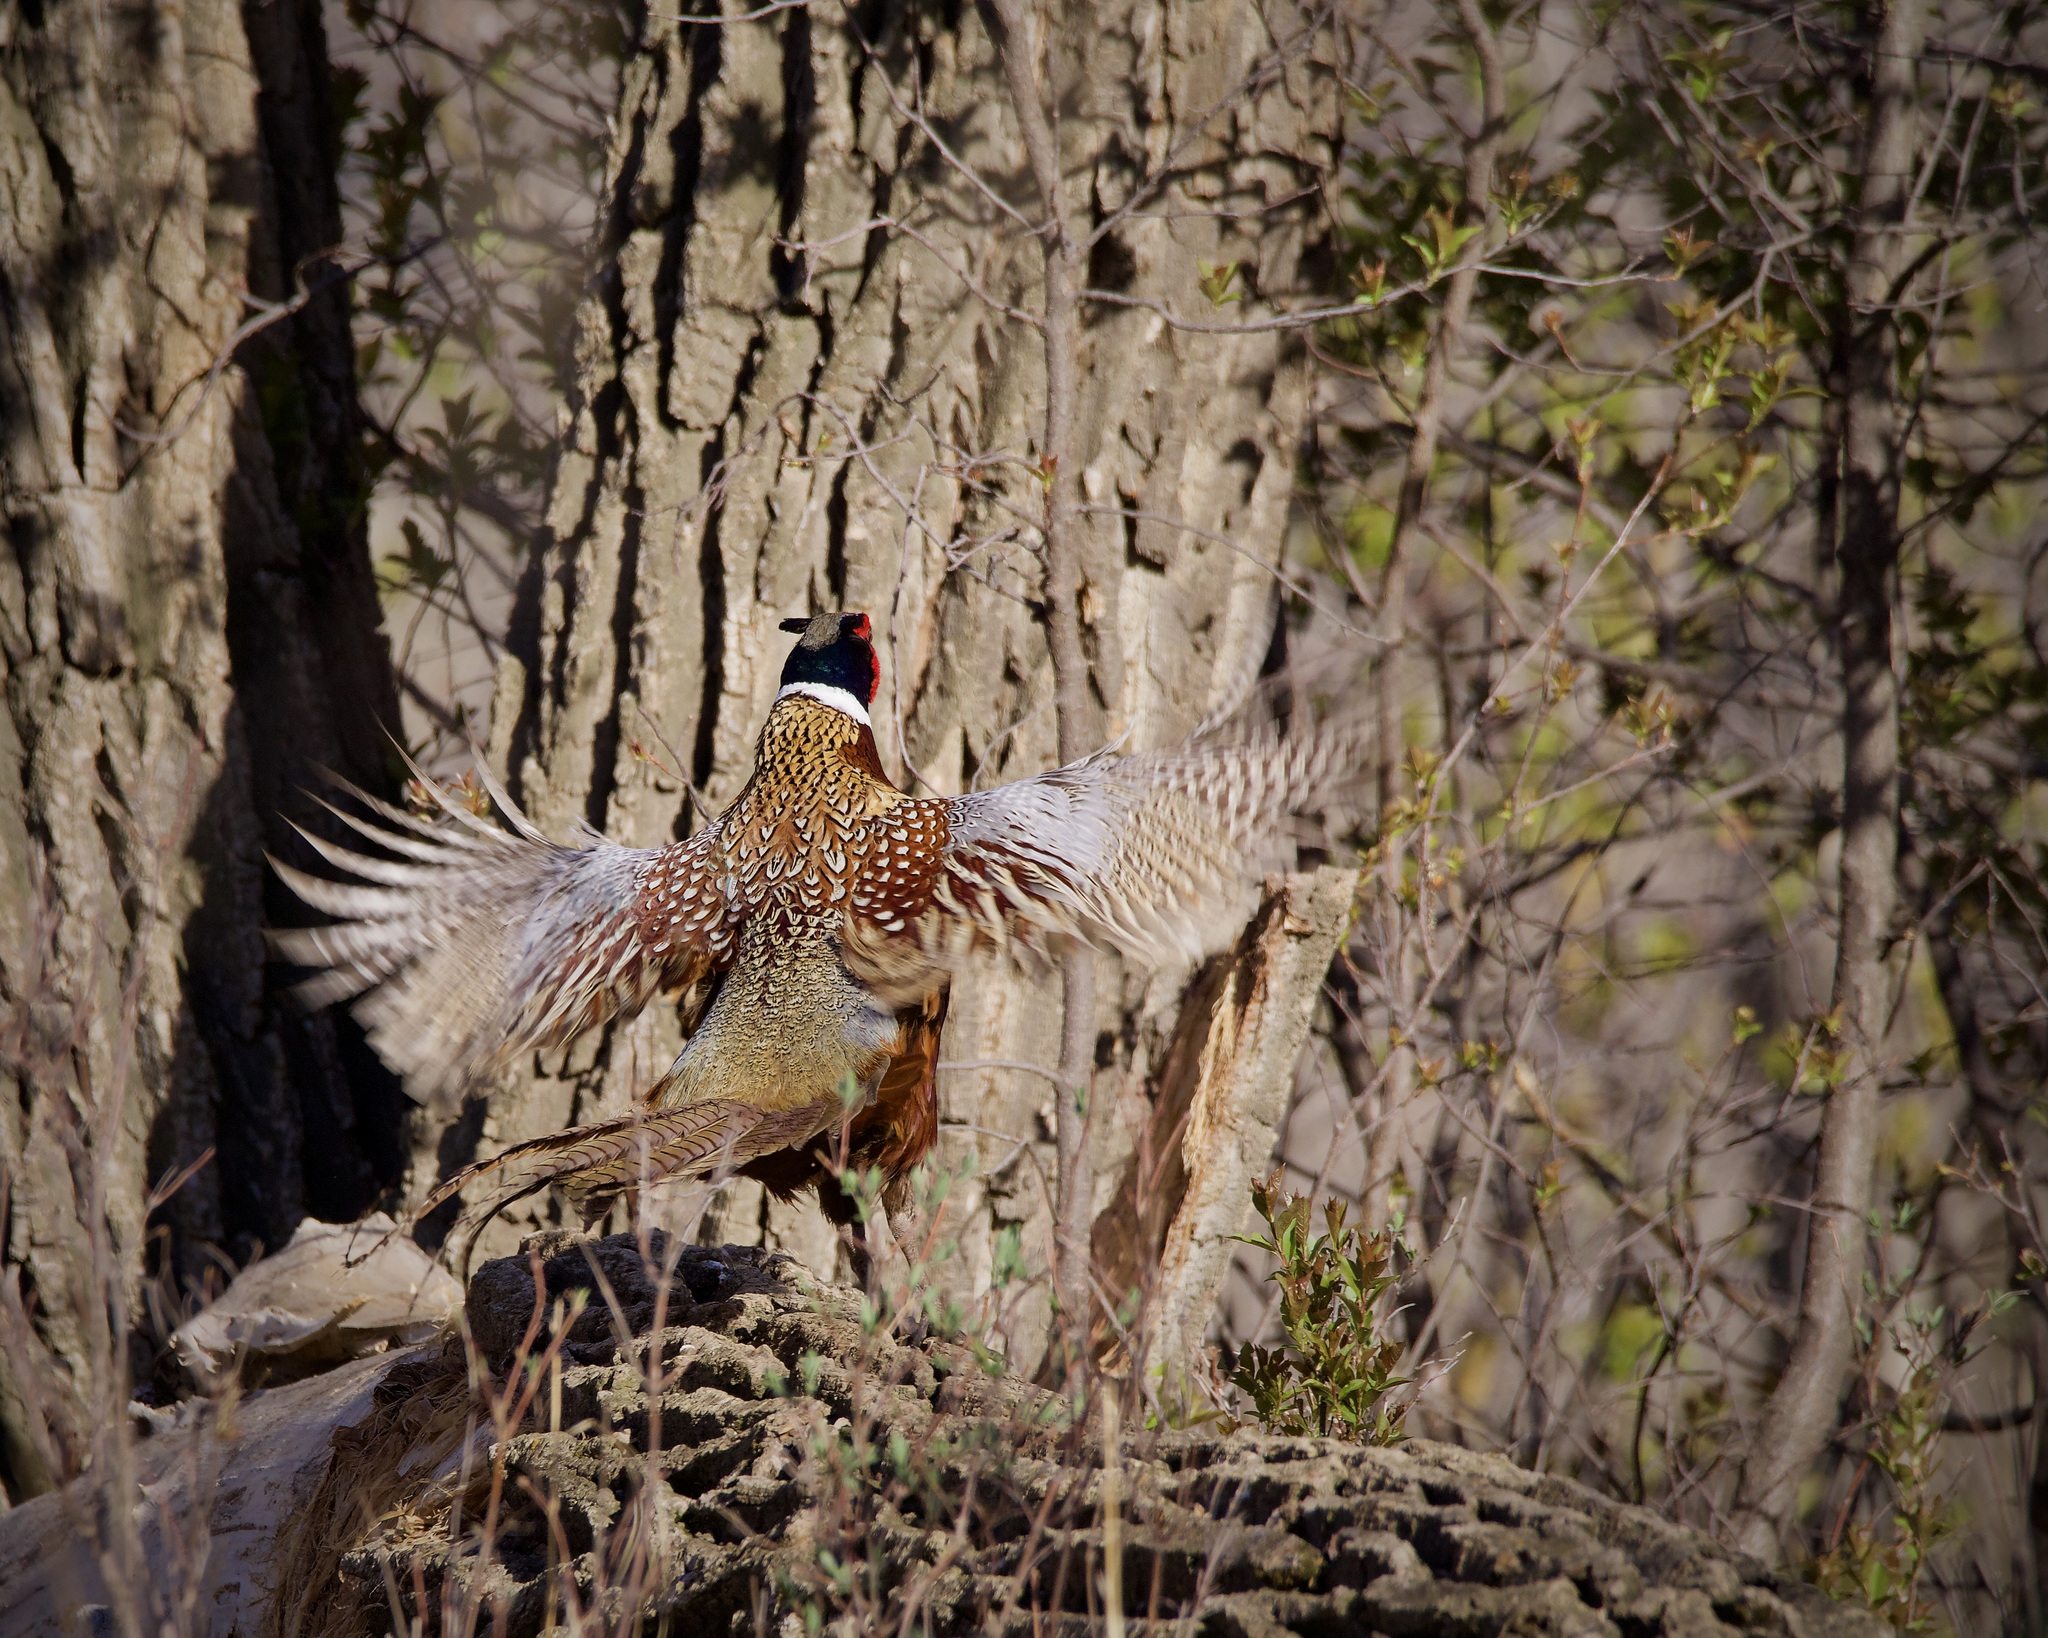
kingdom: Animalia
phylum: Chordata
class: Aves
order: Galliformes
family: Phasianidae
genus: Phasianus
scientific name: Phasianus colchicus
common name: Common pheasant
